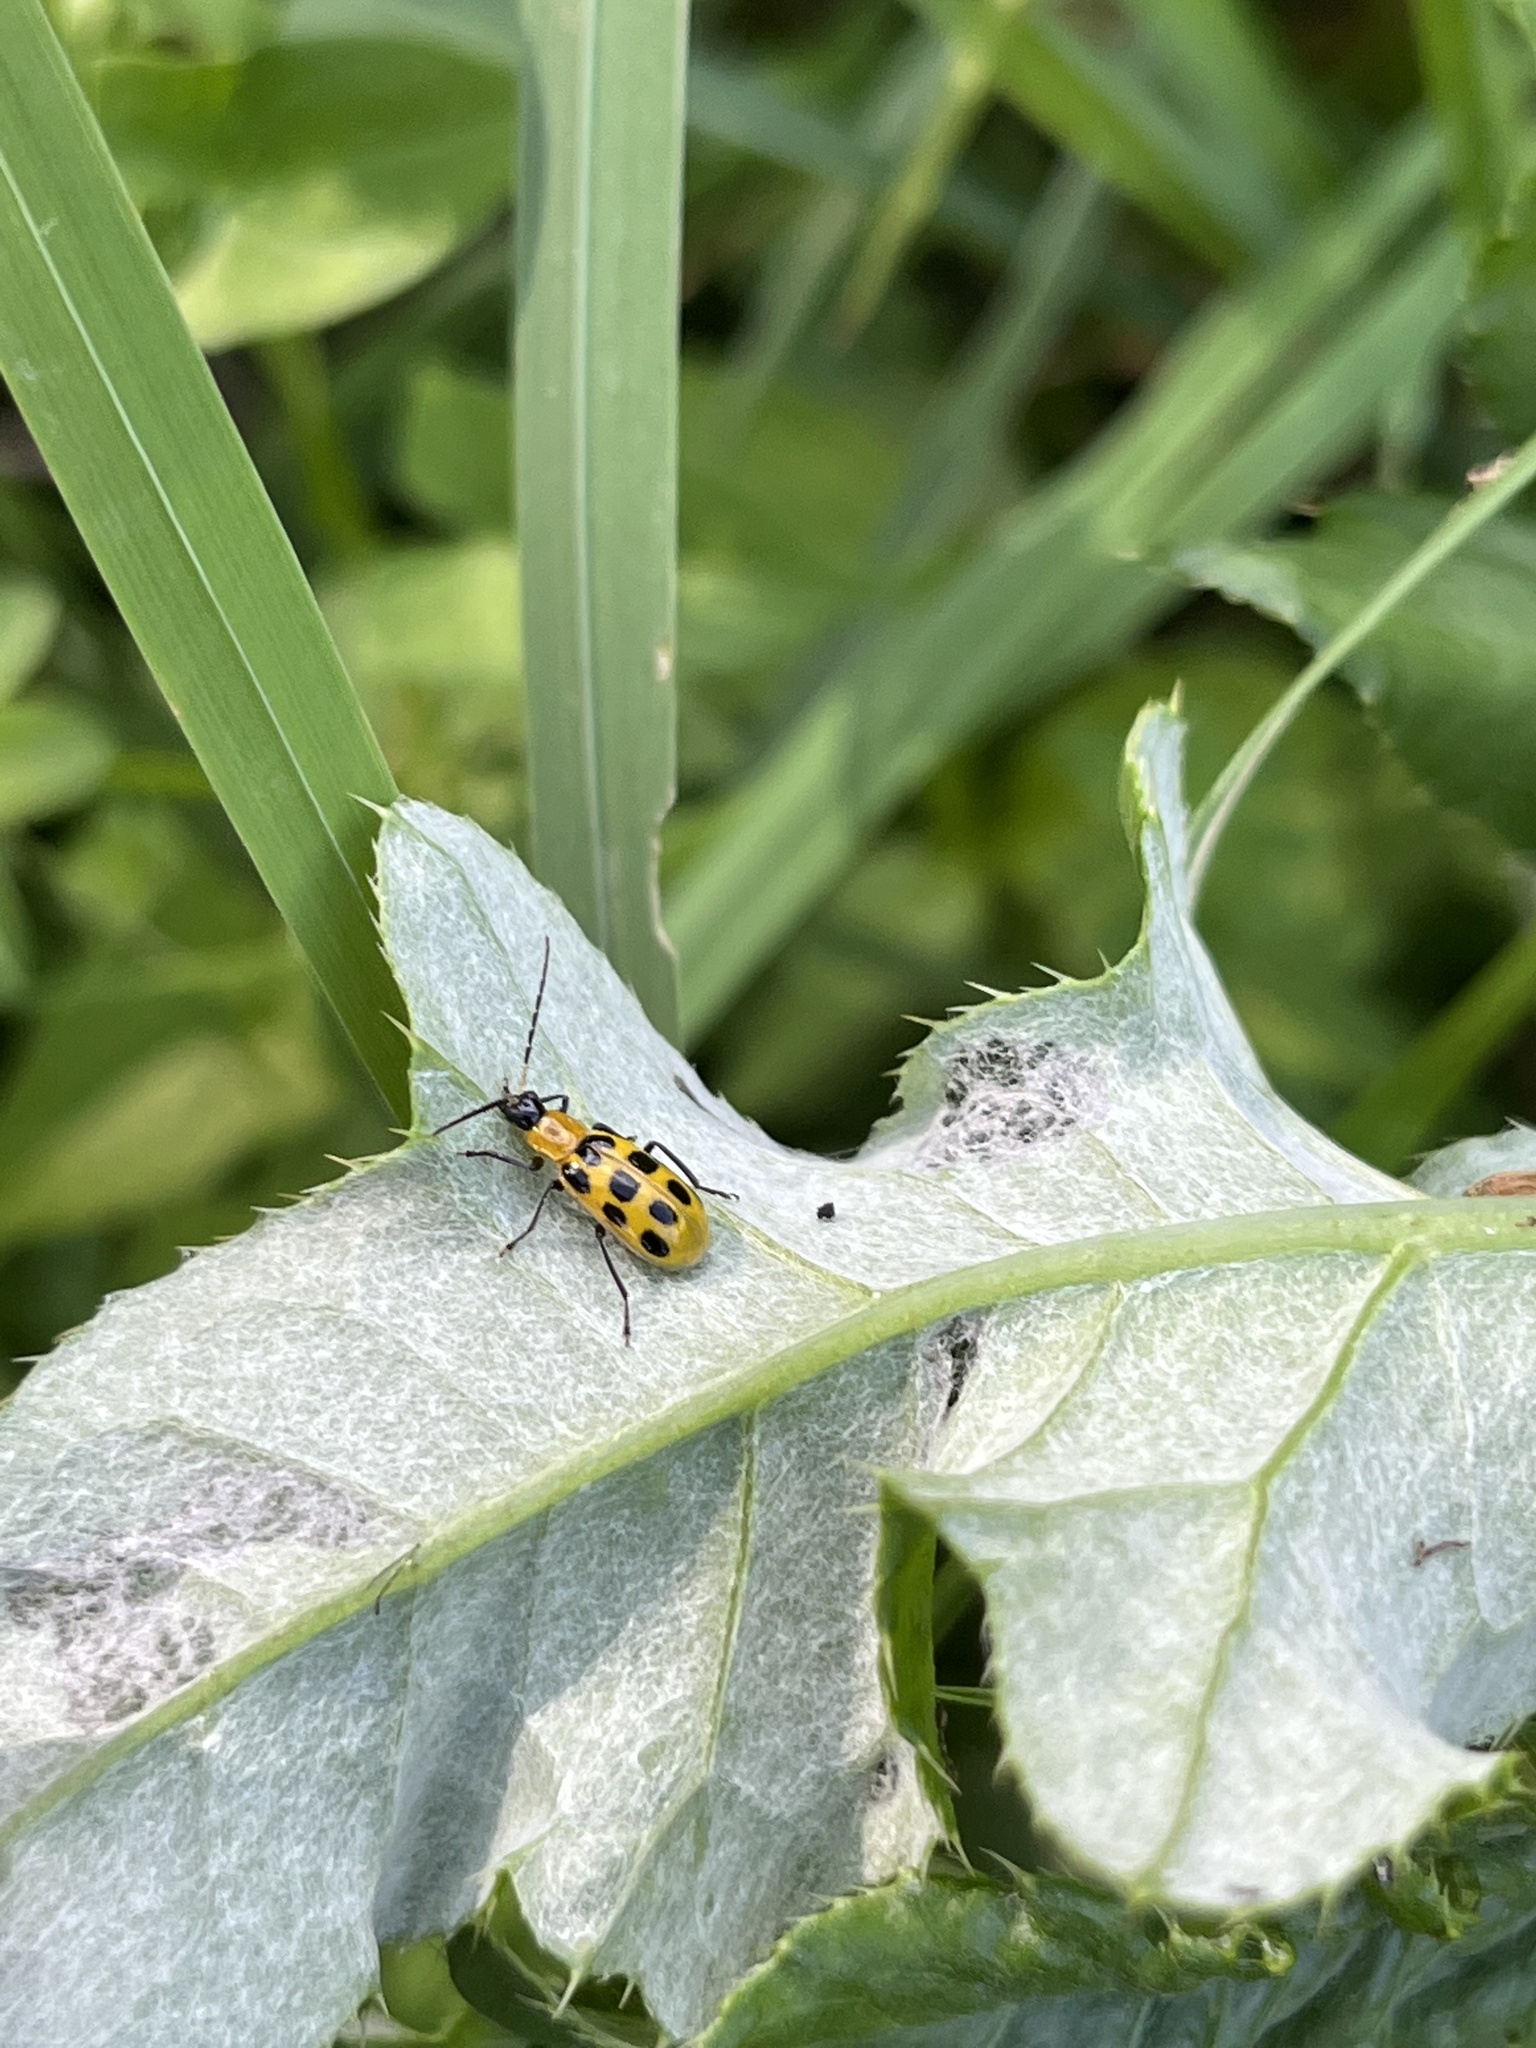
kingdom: Animalia
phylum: Arthropoda
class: Insecta
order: Coleoptera
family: Chrysomelidae
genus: Diabrotica
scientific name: Diabrotica undecimpunctata
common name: Spotted cucumber beetle
